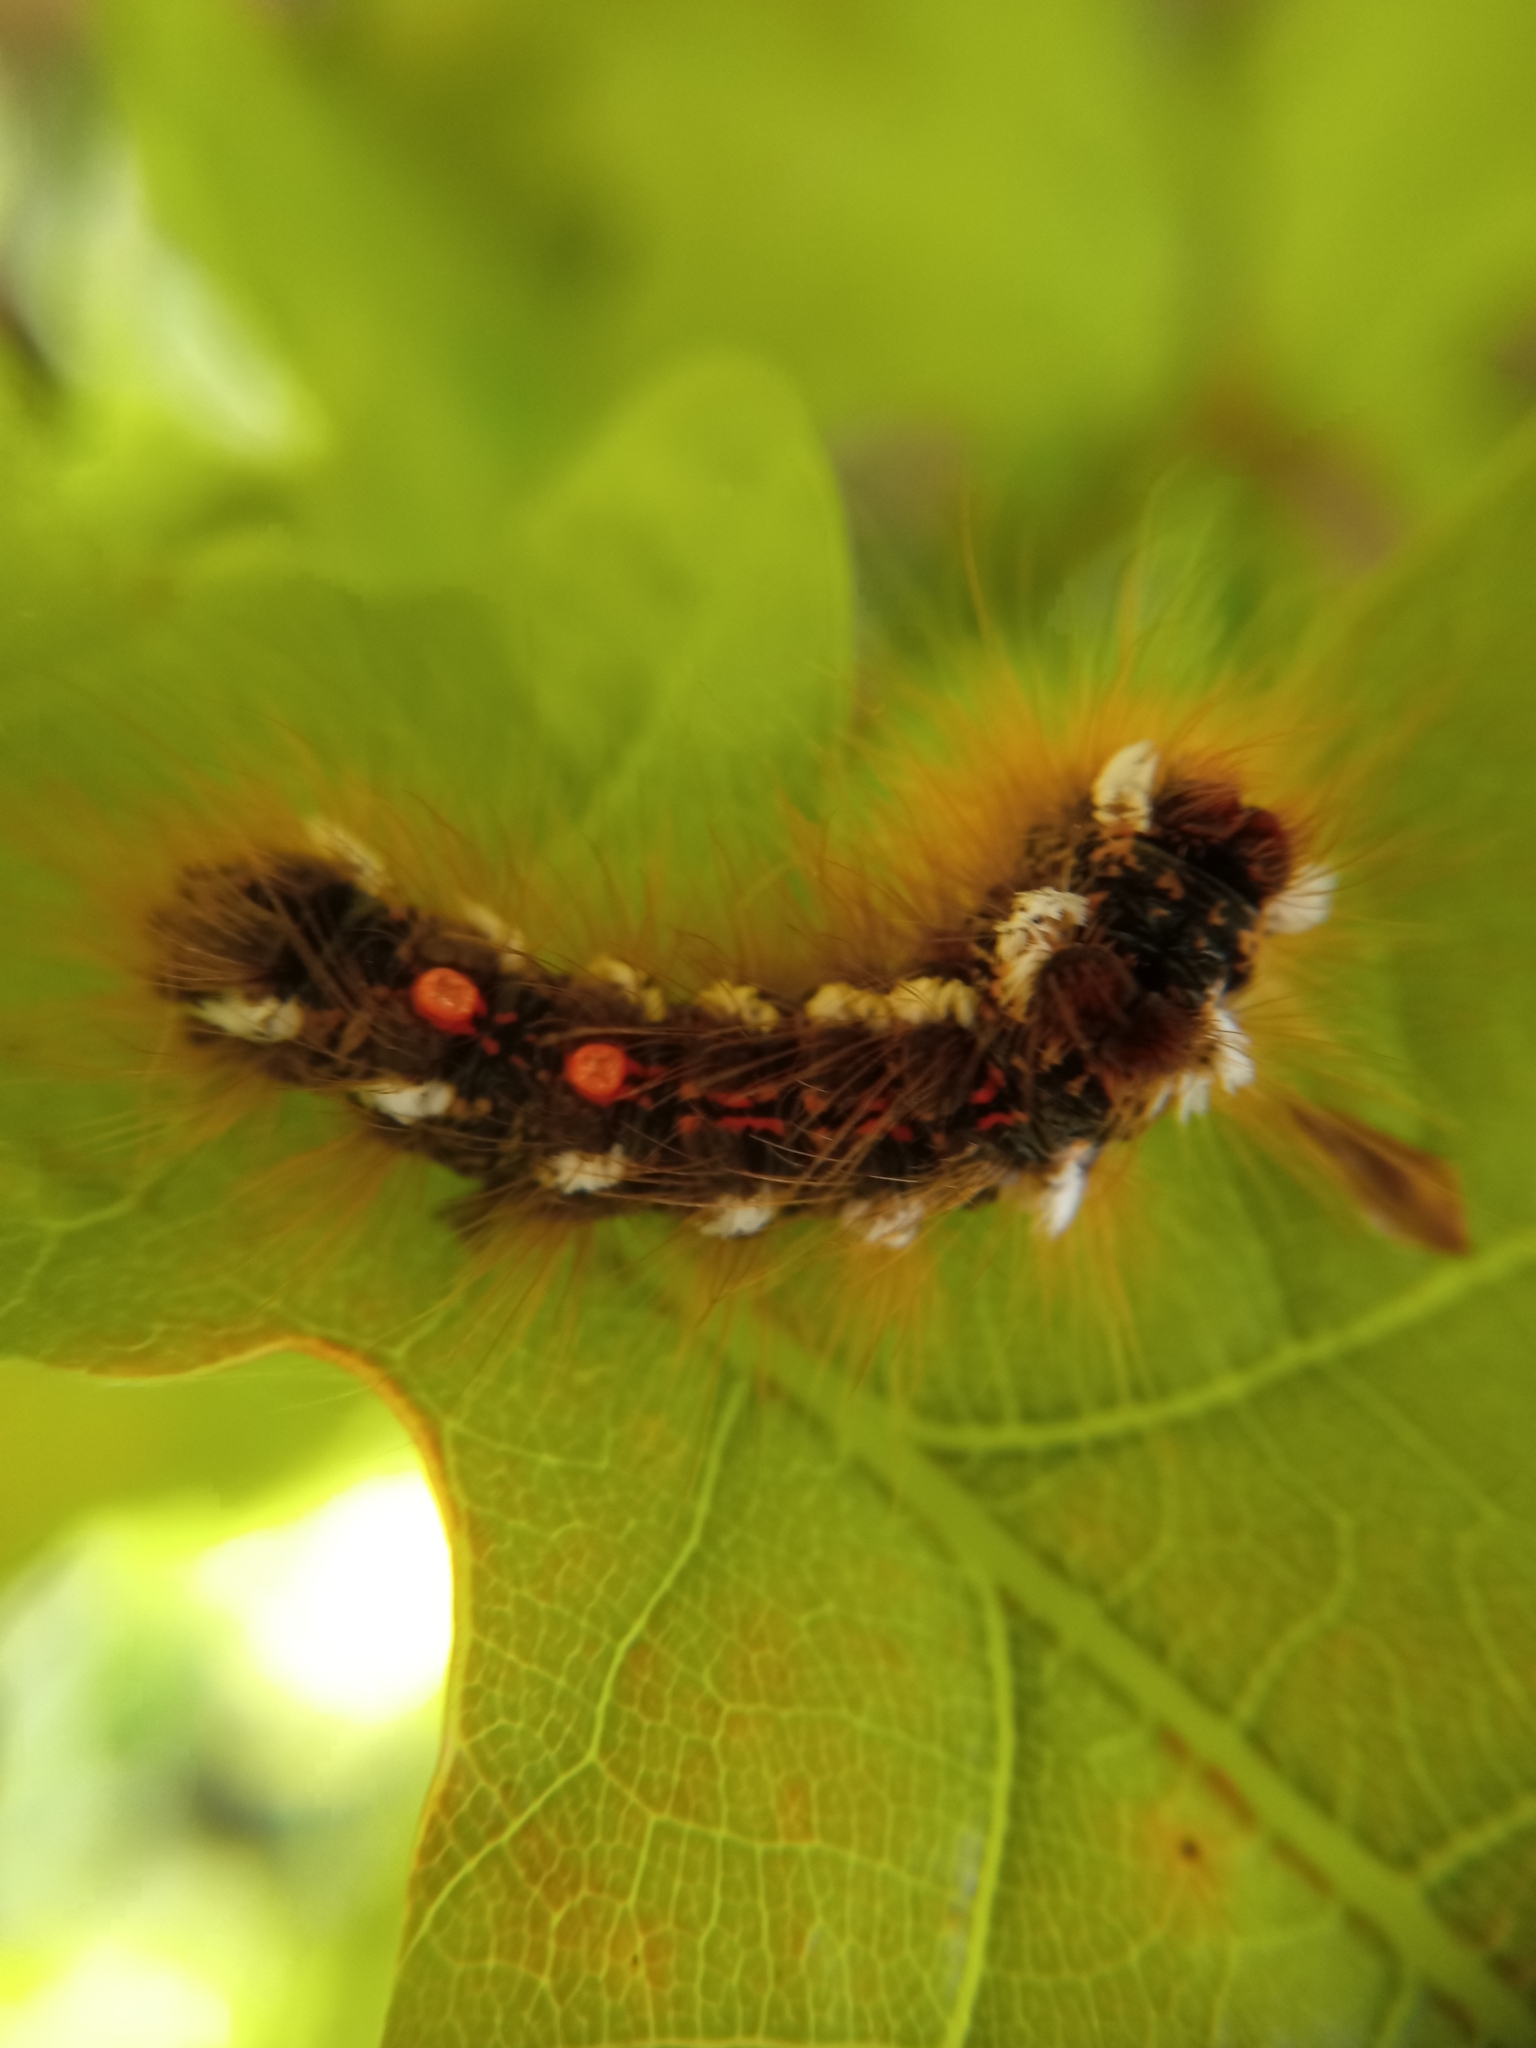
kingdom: Animalia
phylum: Arthropoda
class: Insecta
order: Lepidoptera
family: Erebidae
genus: Euproctis
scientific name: Euproctis chrysorrhoea
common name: Brown-tail
